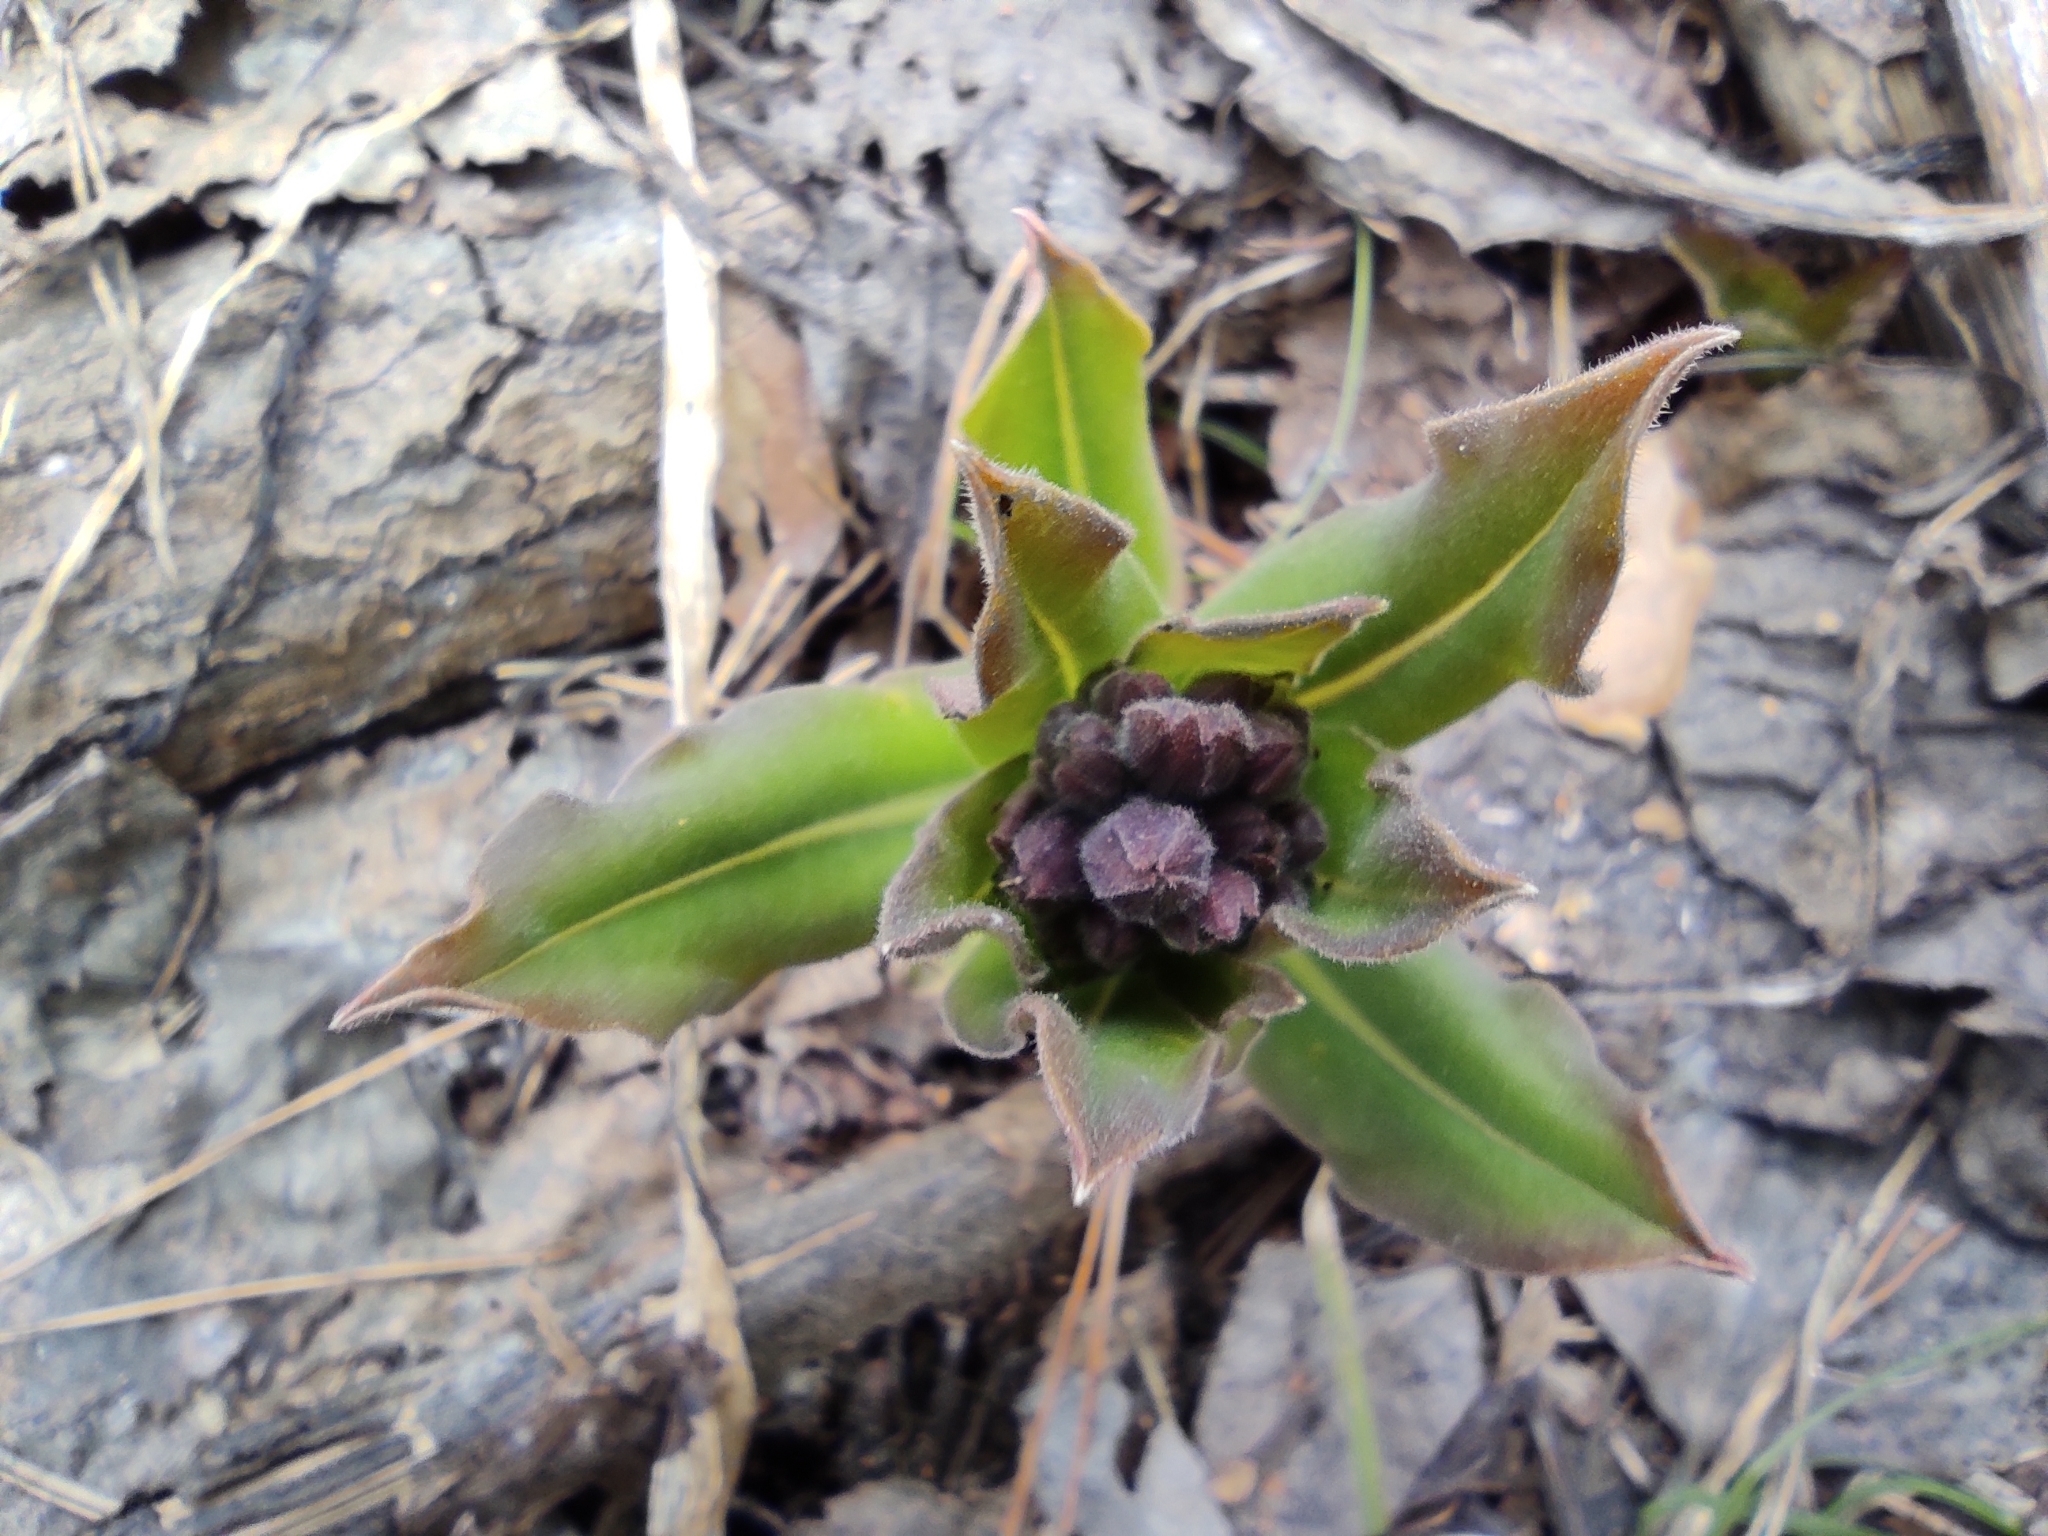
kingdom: Plantae
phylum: Tracheophyta
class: Magnoliopsida
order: Boraginales
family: Boraginaceae
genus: Pulmonaria
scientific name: Pulmonaria mollis
